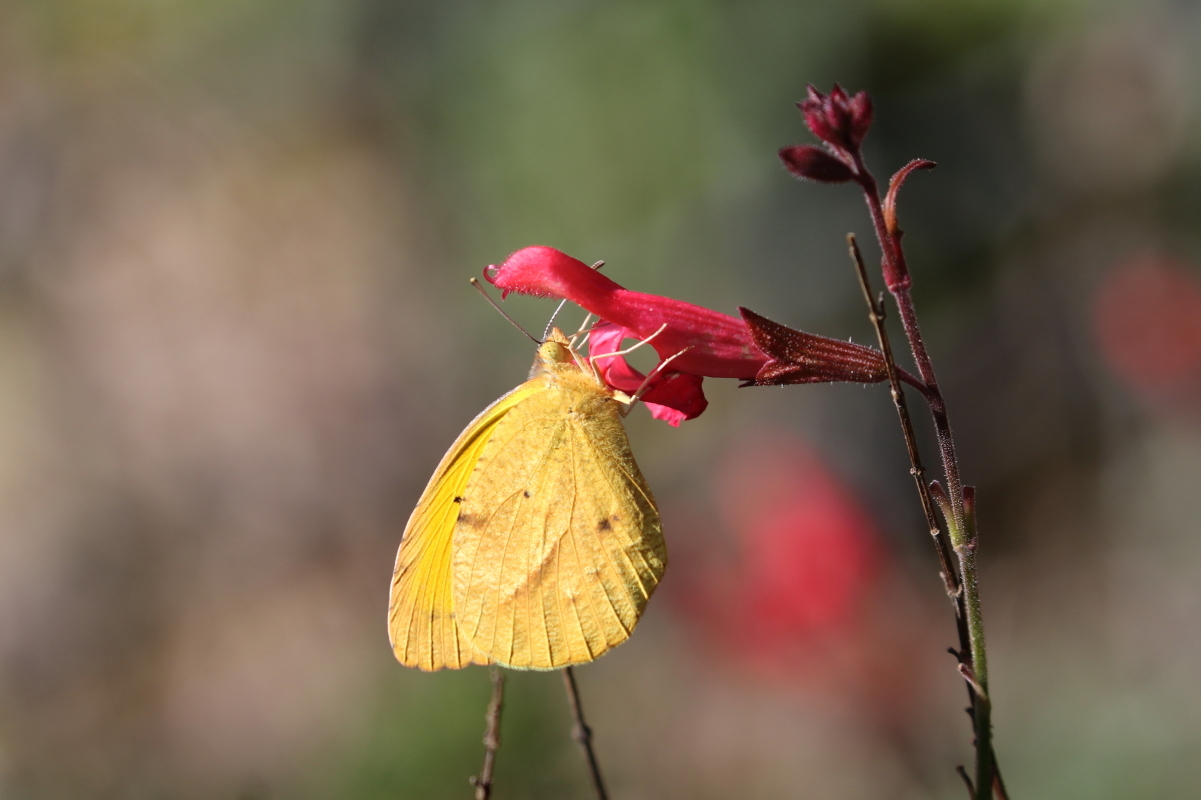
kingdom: Animalia
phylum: Arthropoda
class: Insecta
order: Lepidoptera
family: Pieridae
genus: Abaeis
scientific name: Abaeis nicippe
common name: Sleepy orange
